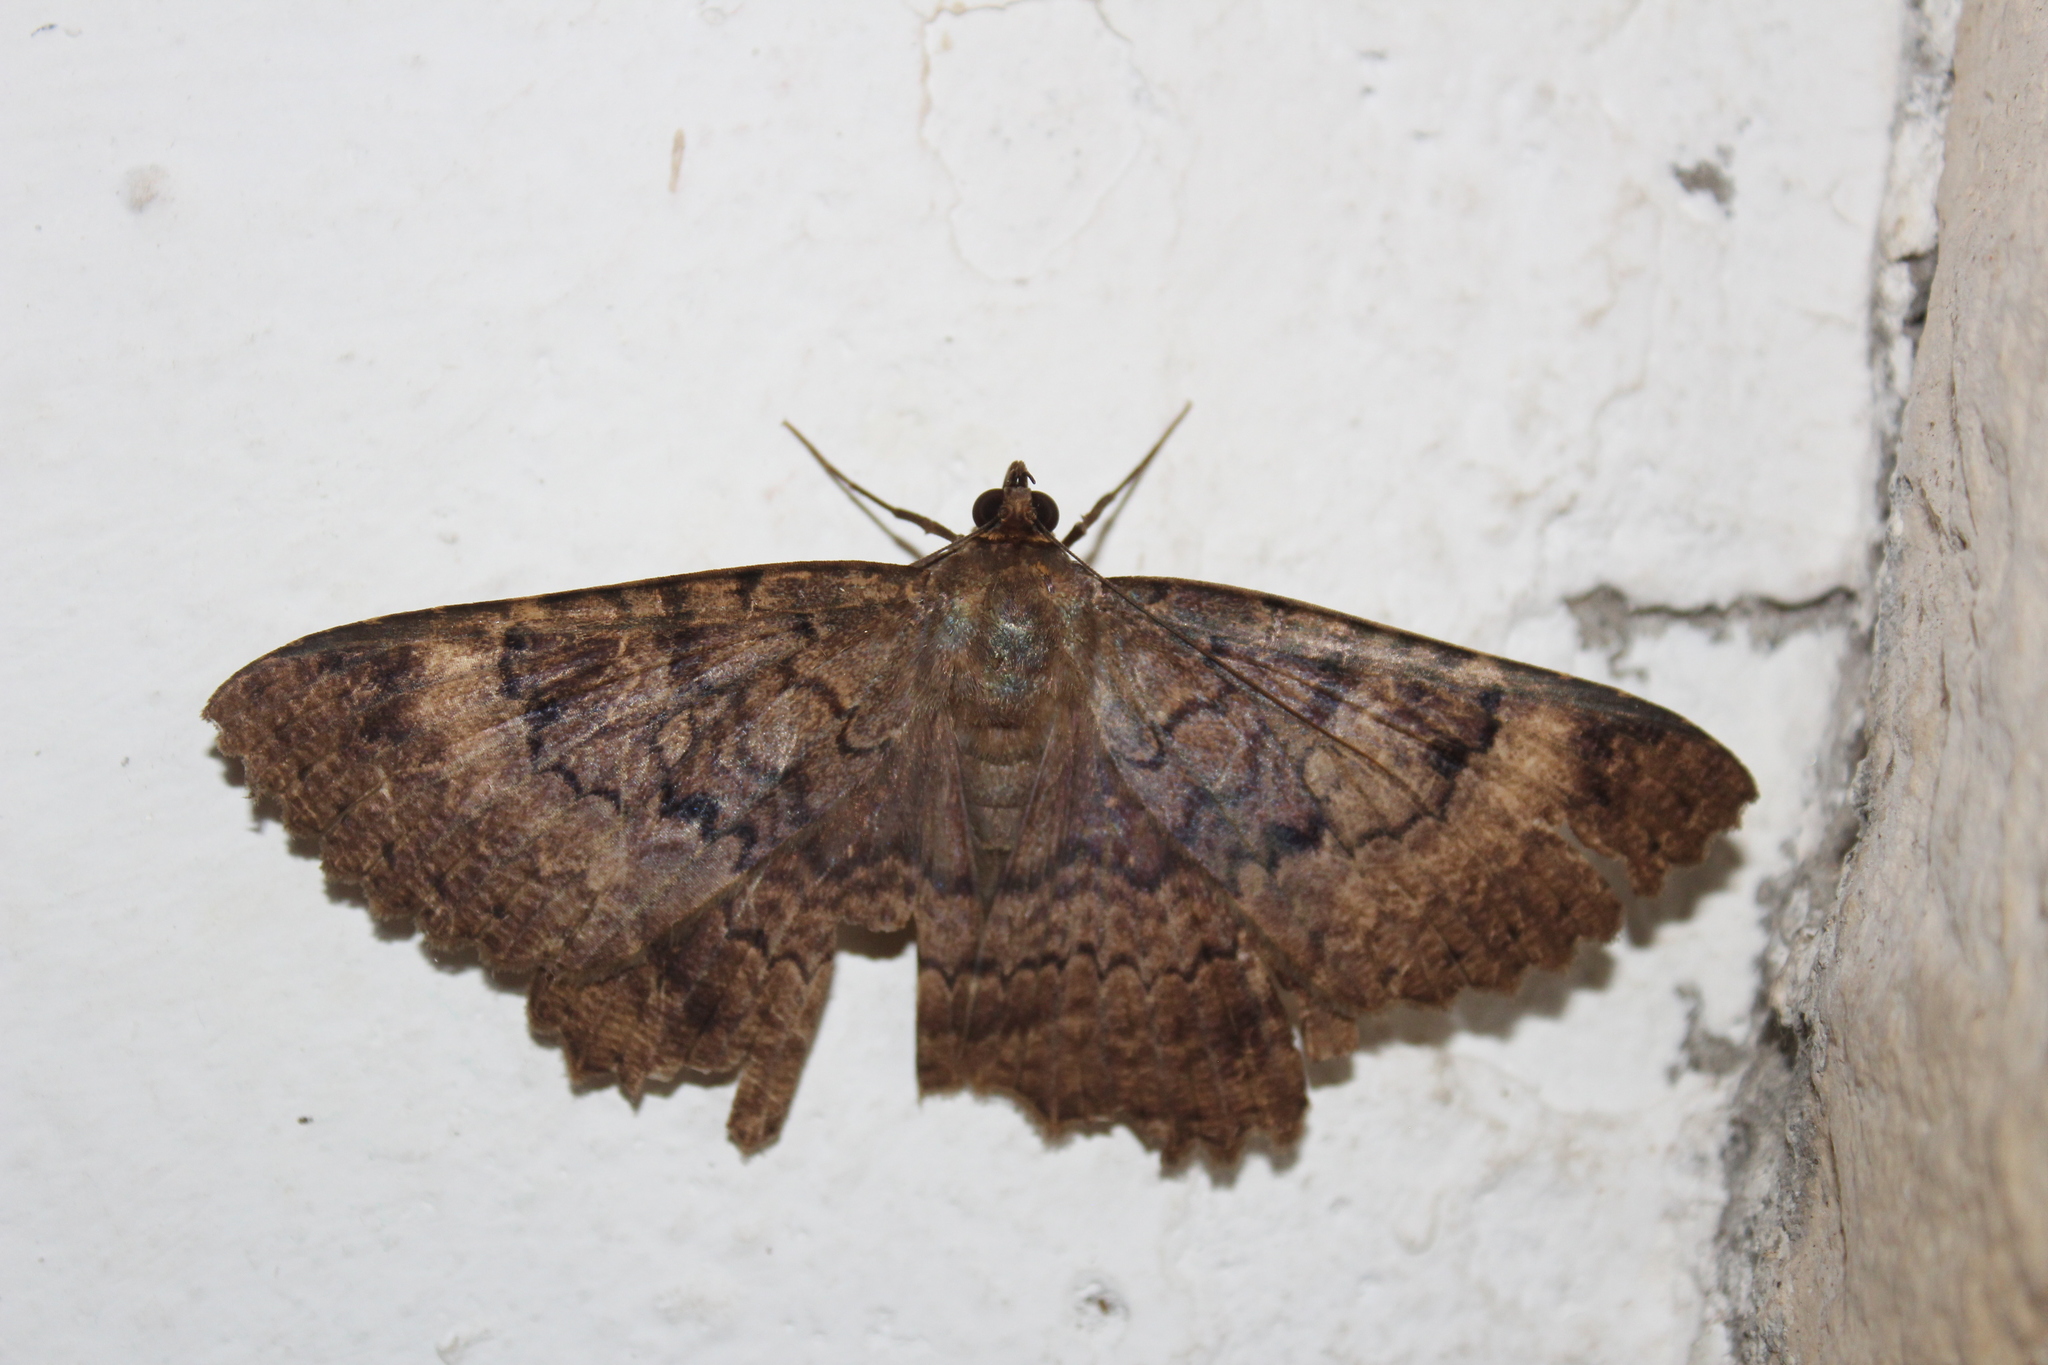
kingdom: Animalia
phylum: Arthropoda
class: Insecta
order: Lepidoptera
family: Erebidae
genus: Latebraria
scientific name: Latebraria amphipyroides
